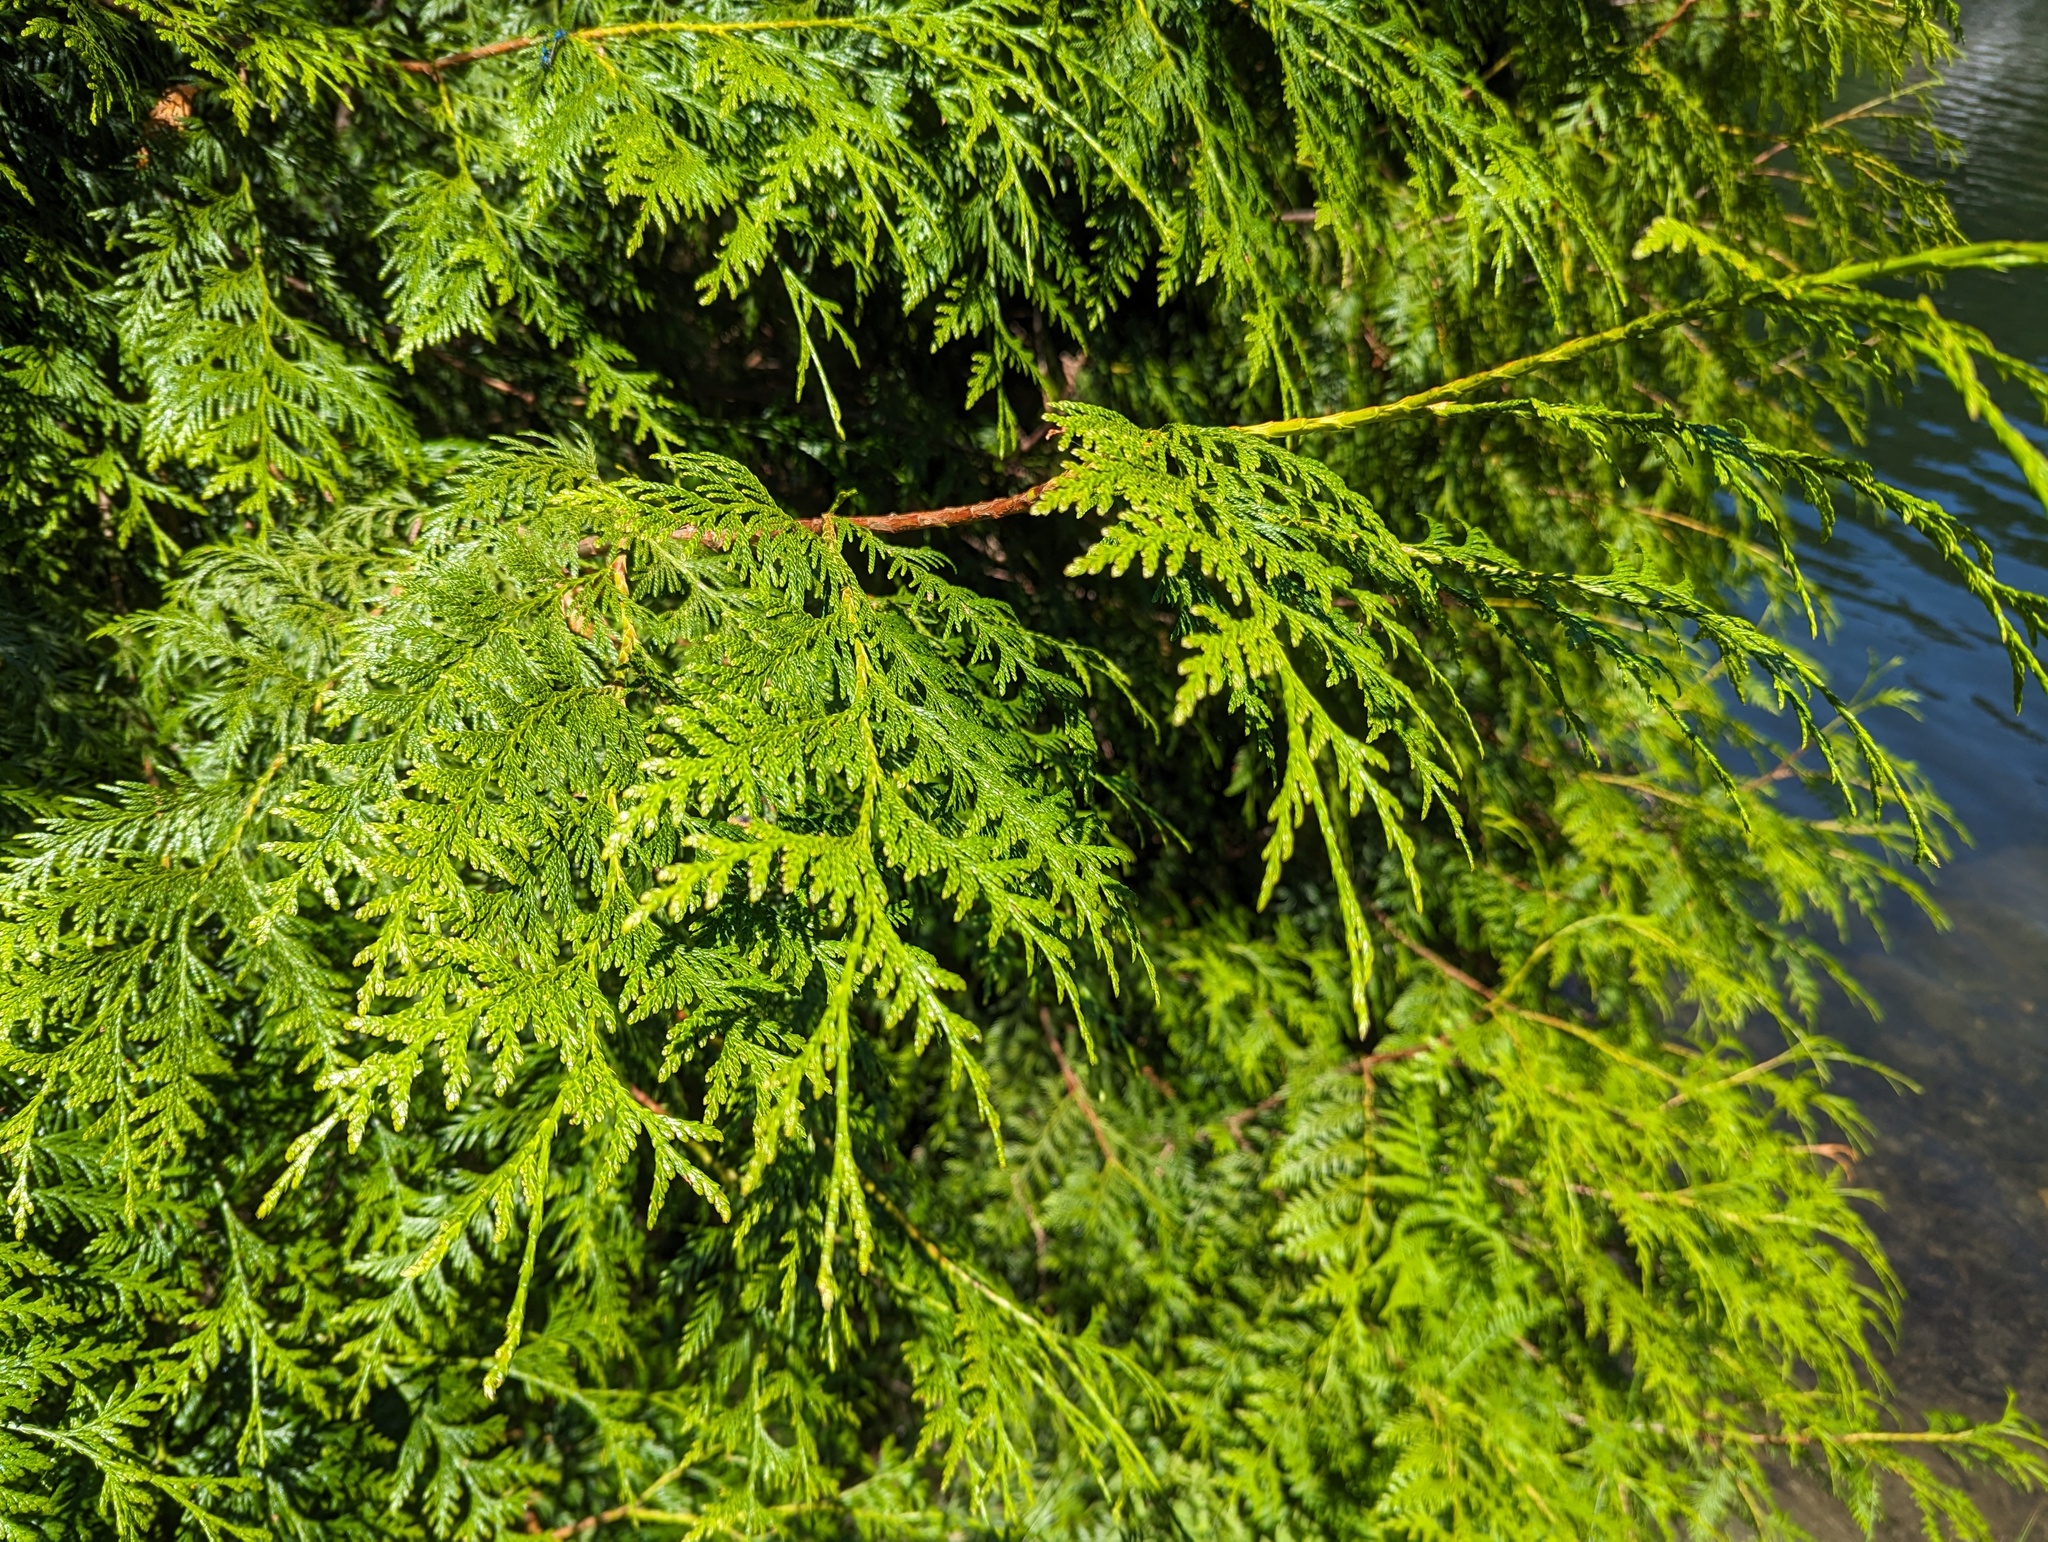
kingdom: Plantae
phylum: Tracheophyta
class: Pinopsida
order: Pinales
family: Cupressaceae
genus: Thuja
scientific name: Thuja plicata
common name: Western red-cedar
